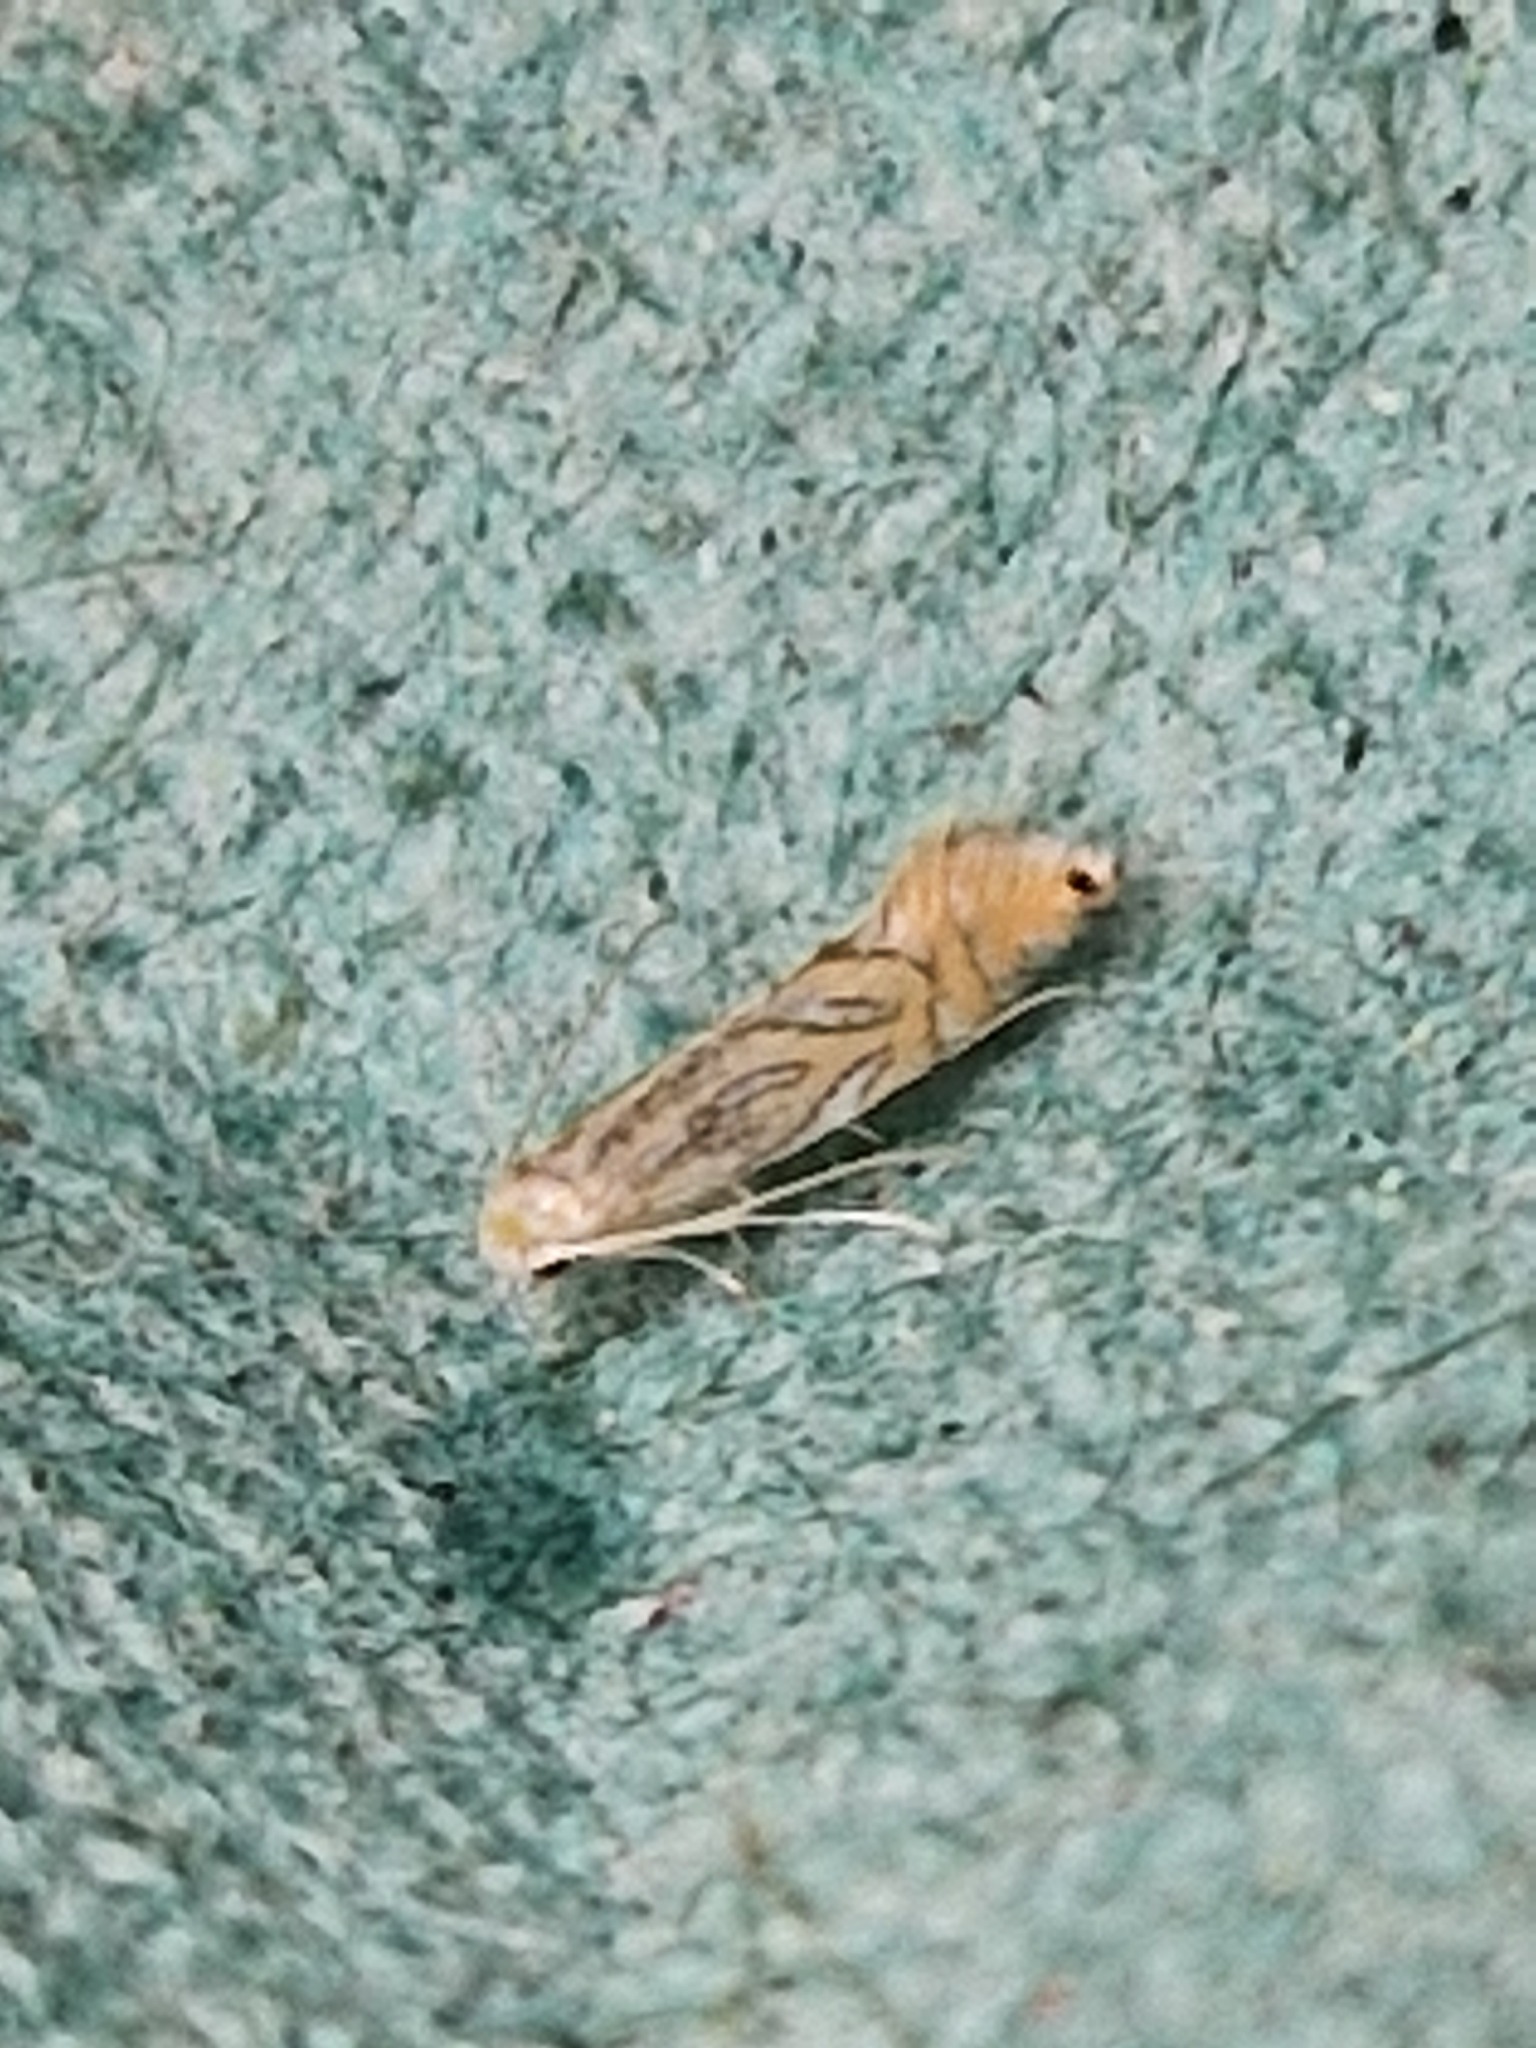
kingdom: Animalia
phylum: Arthropoda
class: Insecta
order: Lepidoptera
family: Gracillariidae
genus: Phyllonorycter
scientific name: Phyllonorycter platani
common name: London midget
